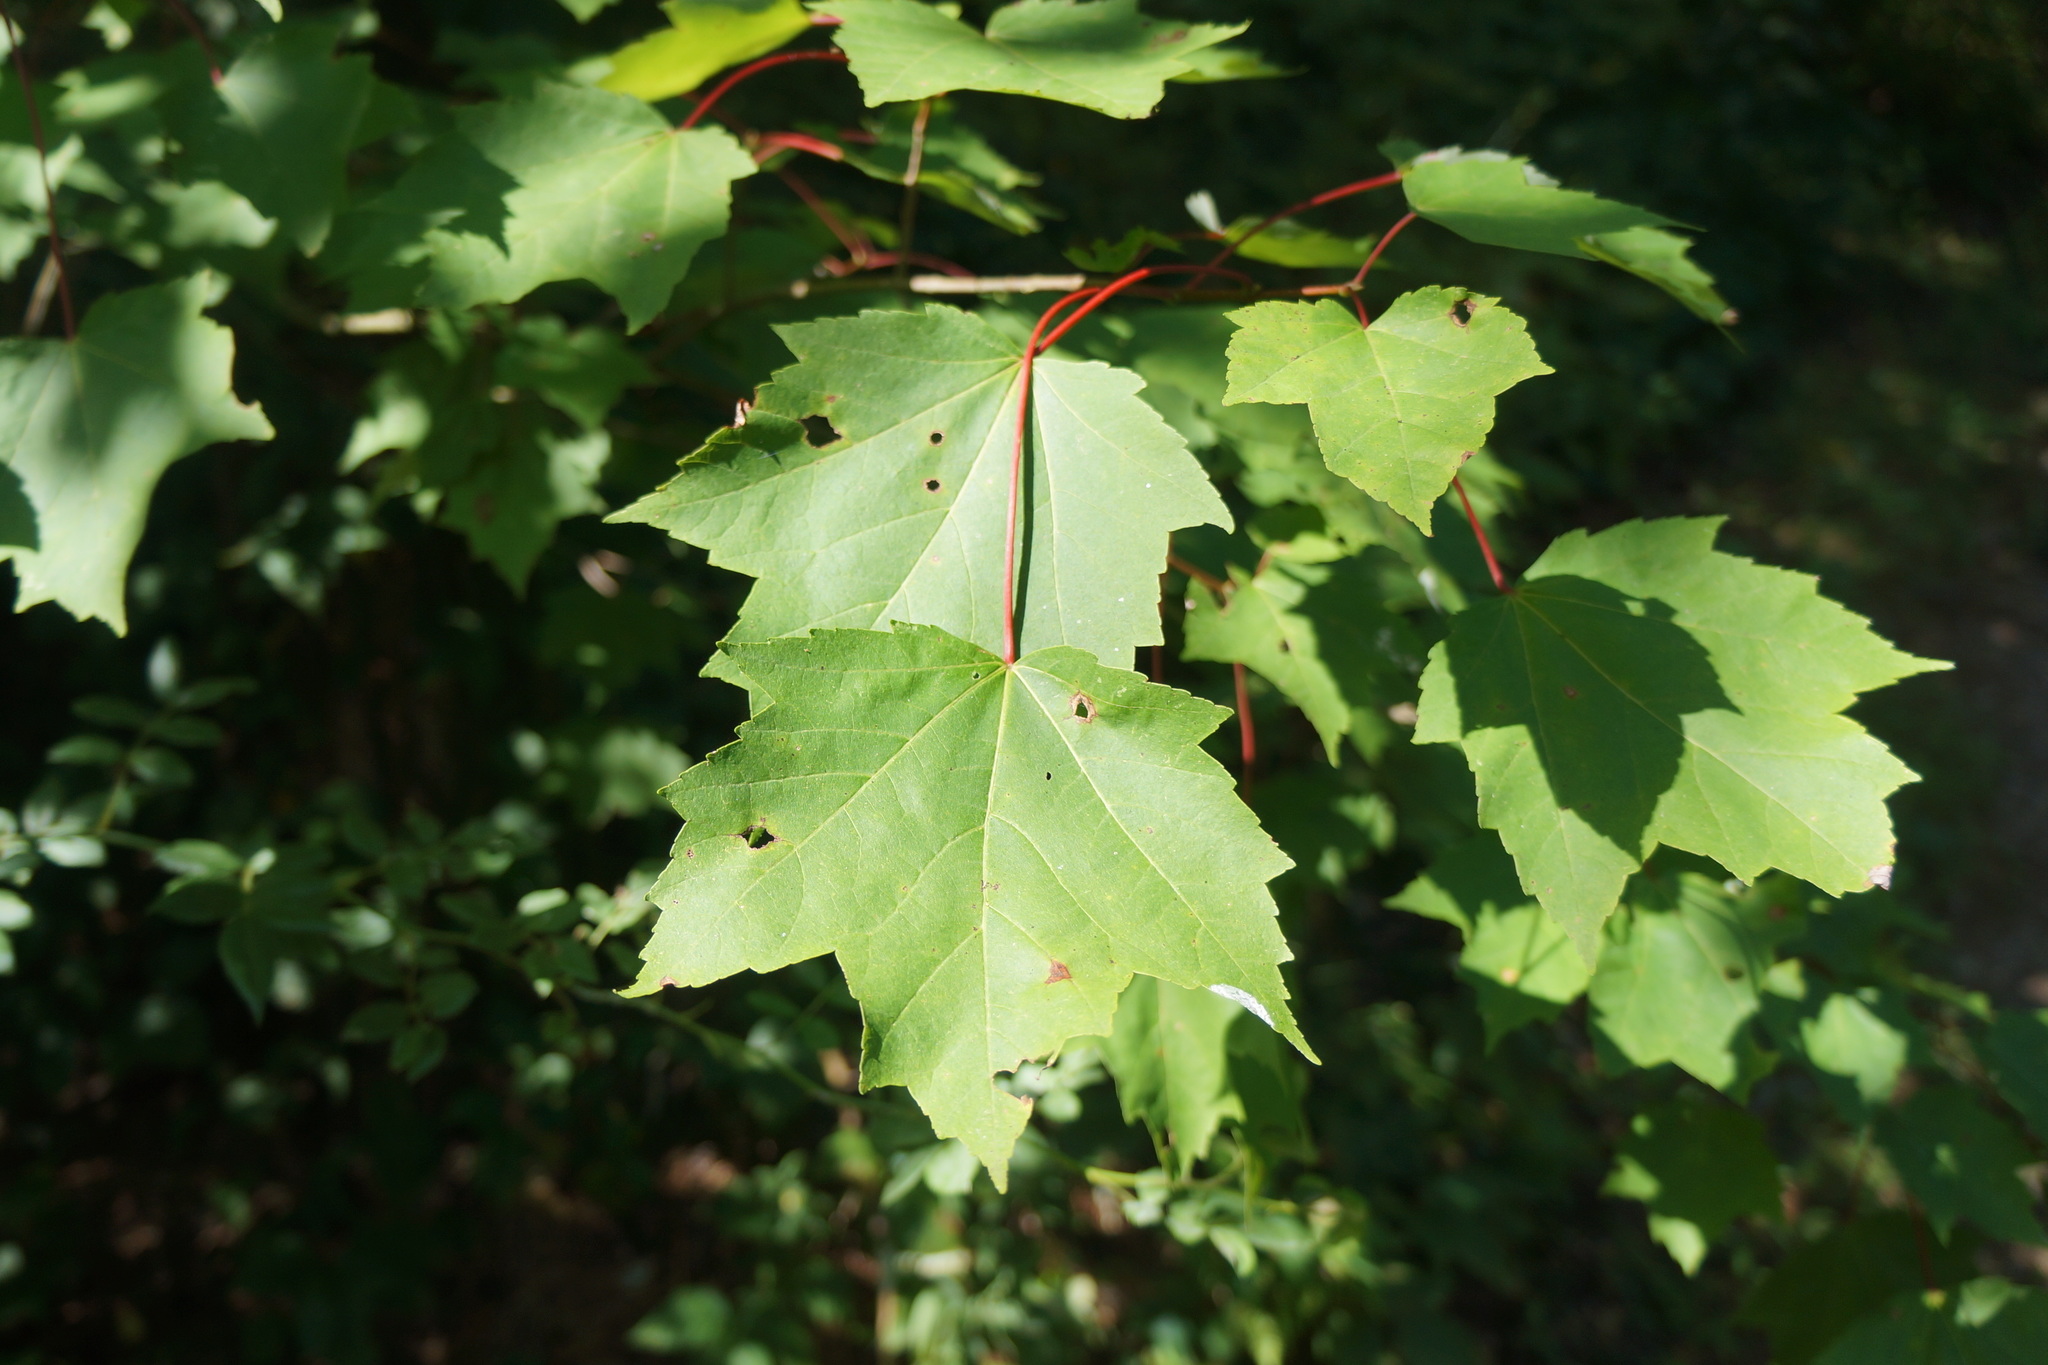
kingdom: Plantae
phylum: Tracheophyta
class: Magnoliopsida
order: Sapindales
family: Sapindaceae
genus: Acer
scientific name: Acer rubrum
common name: Red maple
